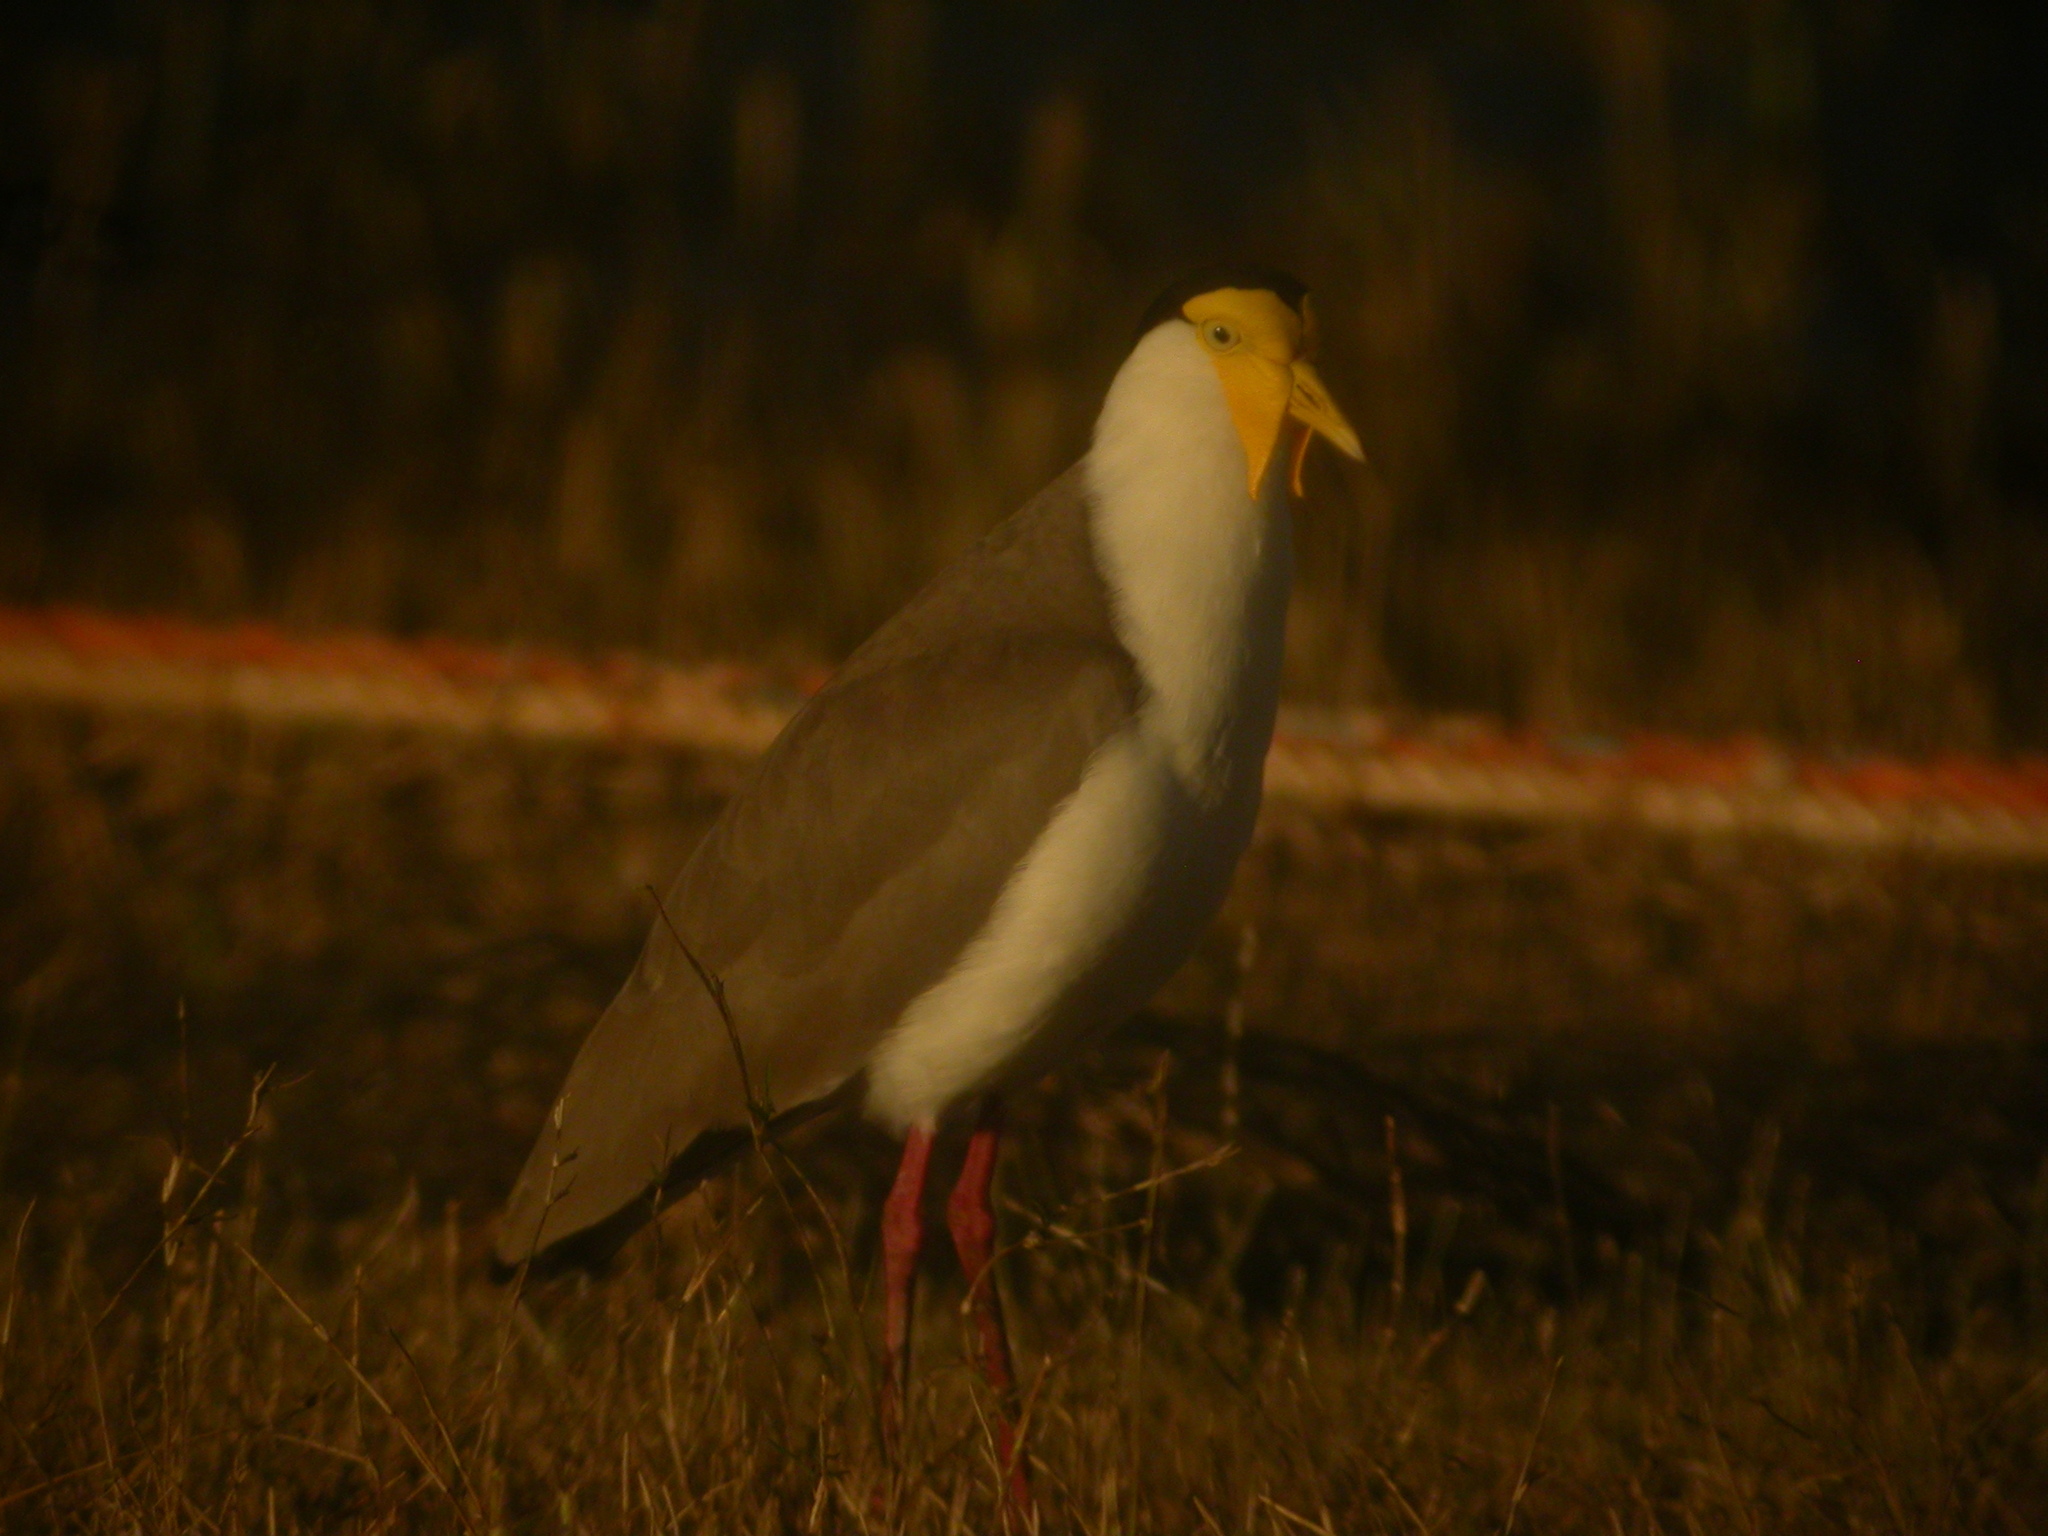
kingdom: Animalia
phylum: Chordata
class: Aves
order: Charadriiformes
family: Charadriidae
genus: Vanellus
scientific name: Vanellus miles
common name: Masked lapwing
